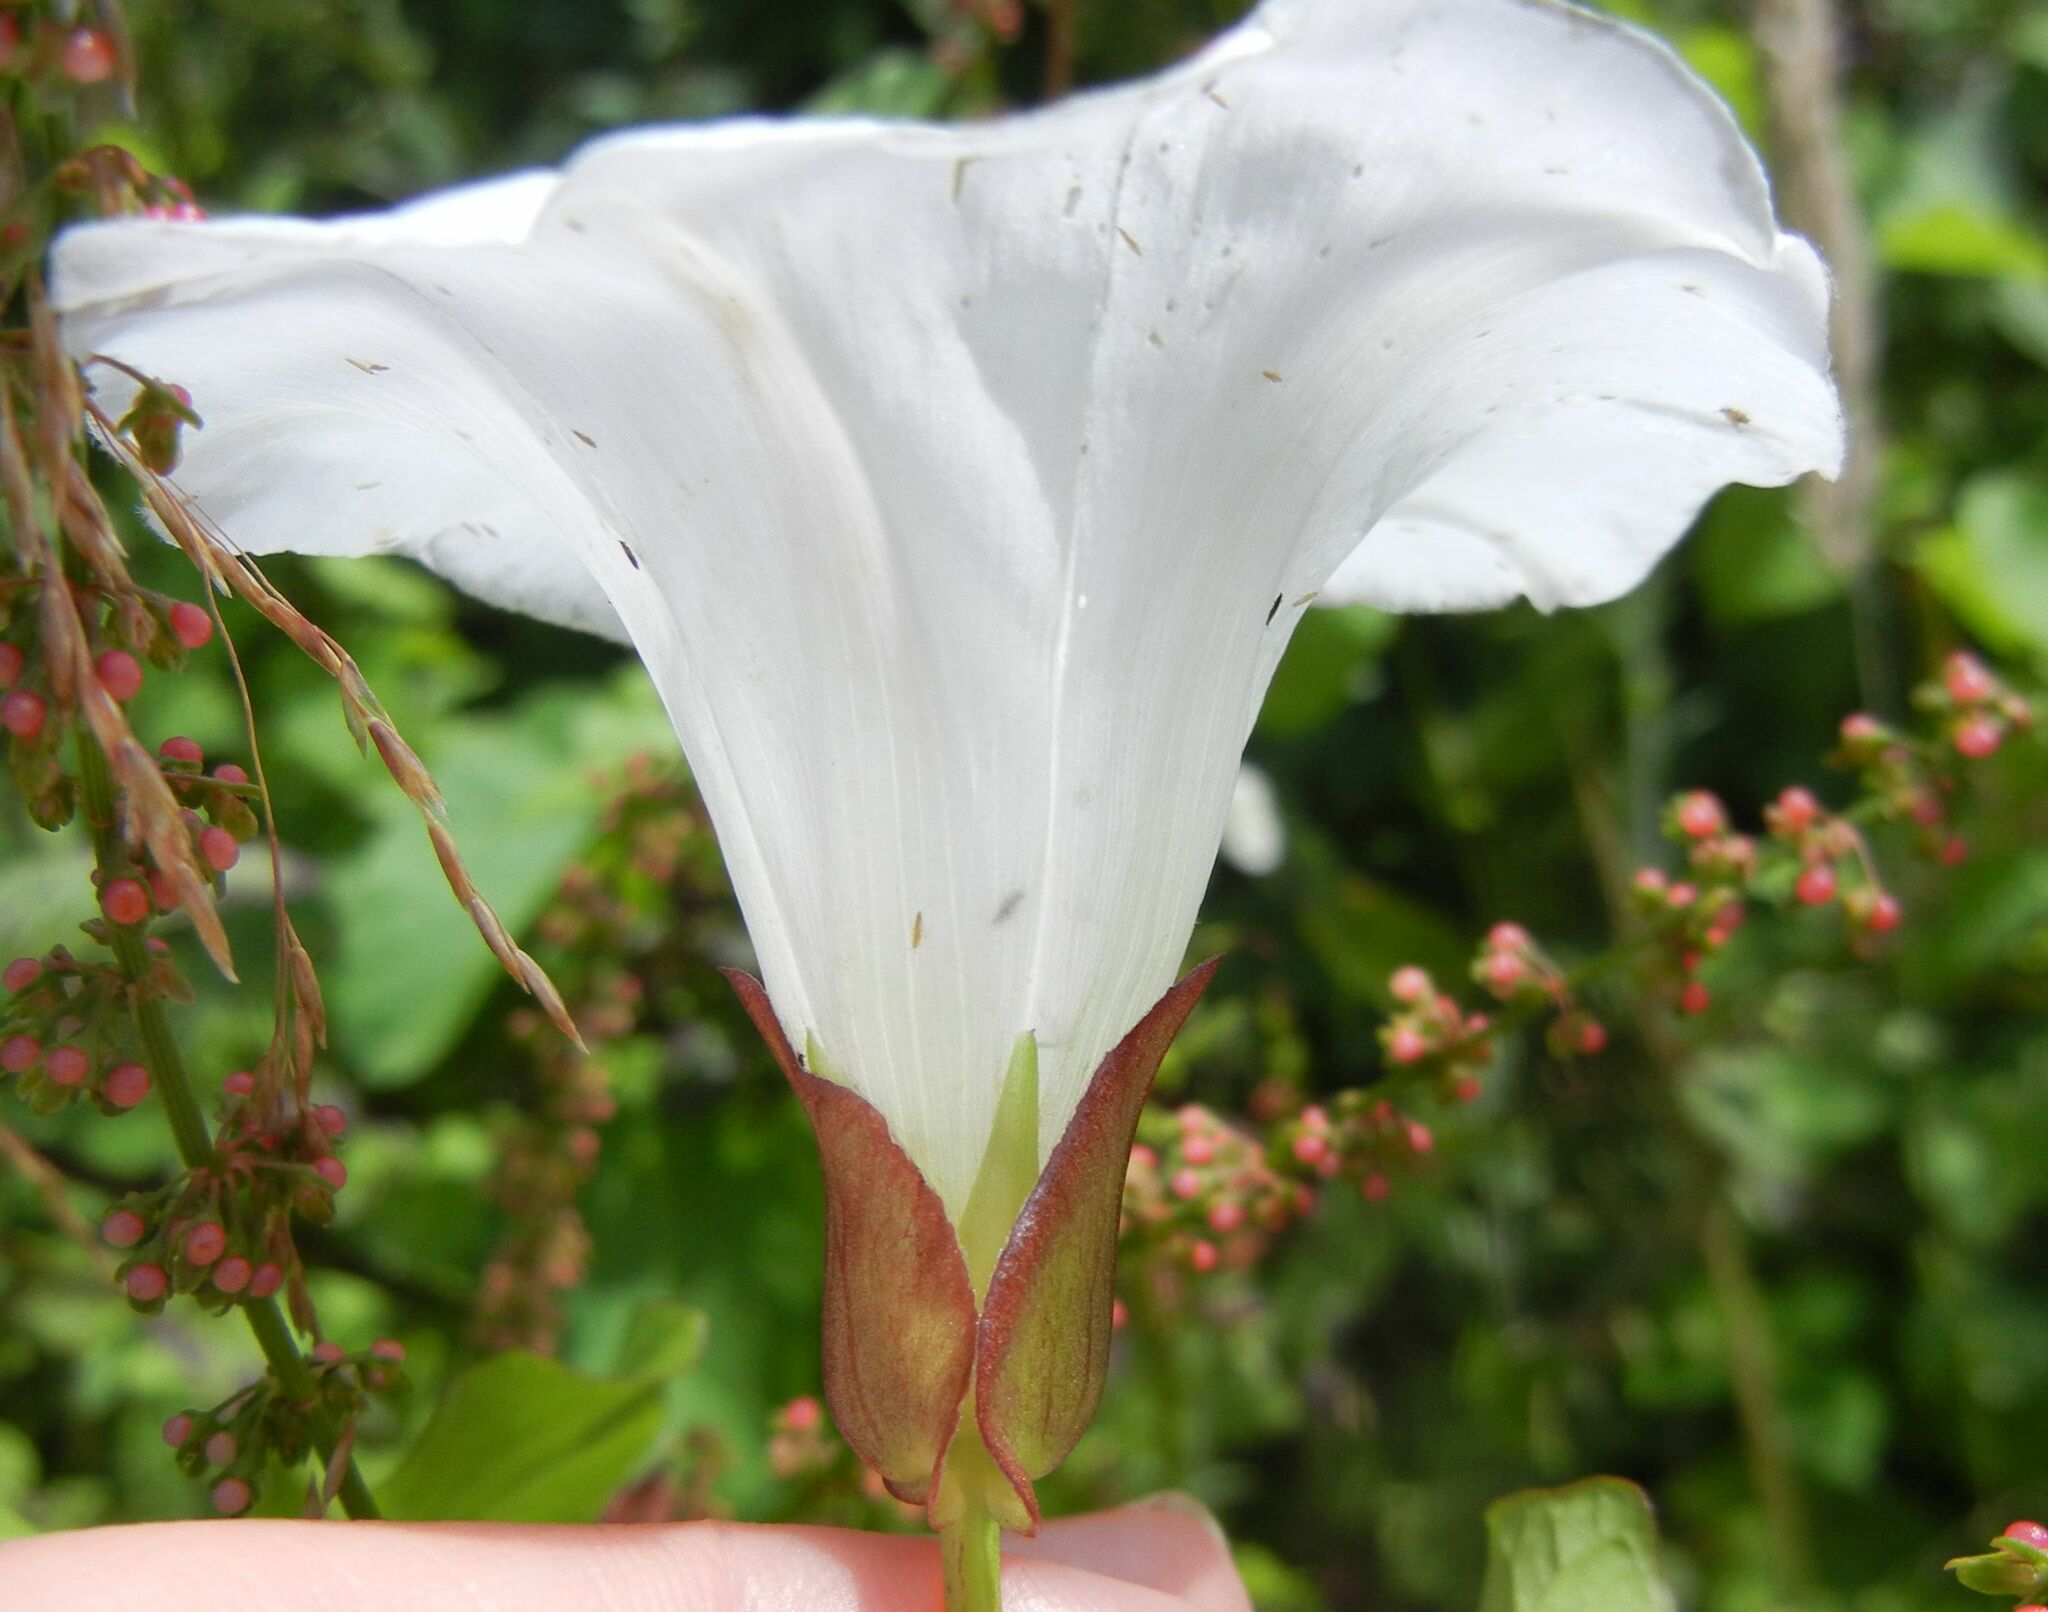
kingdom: Plantae
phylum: Tracheophyta
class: Magnoliopsida
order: Solanales
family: Convolvulaceae
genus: Calystegia
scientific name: Calystegia sepium
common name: Hedge bindweed
